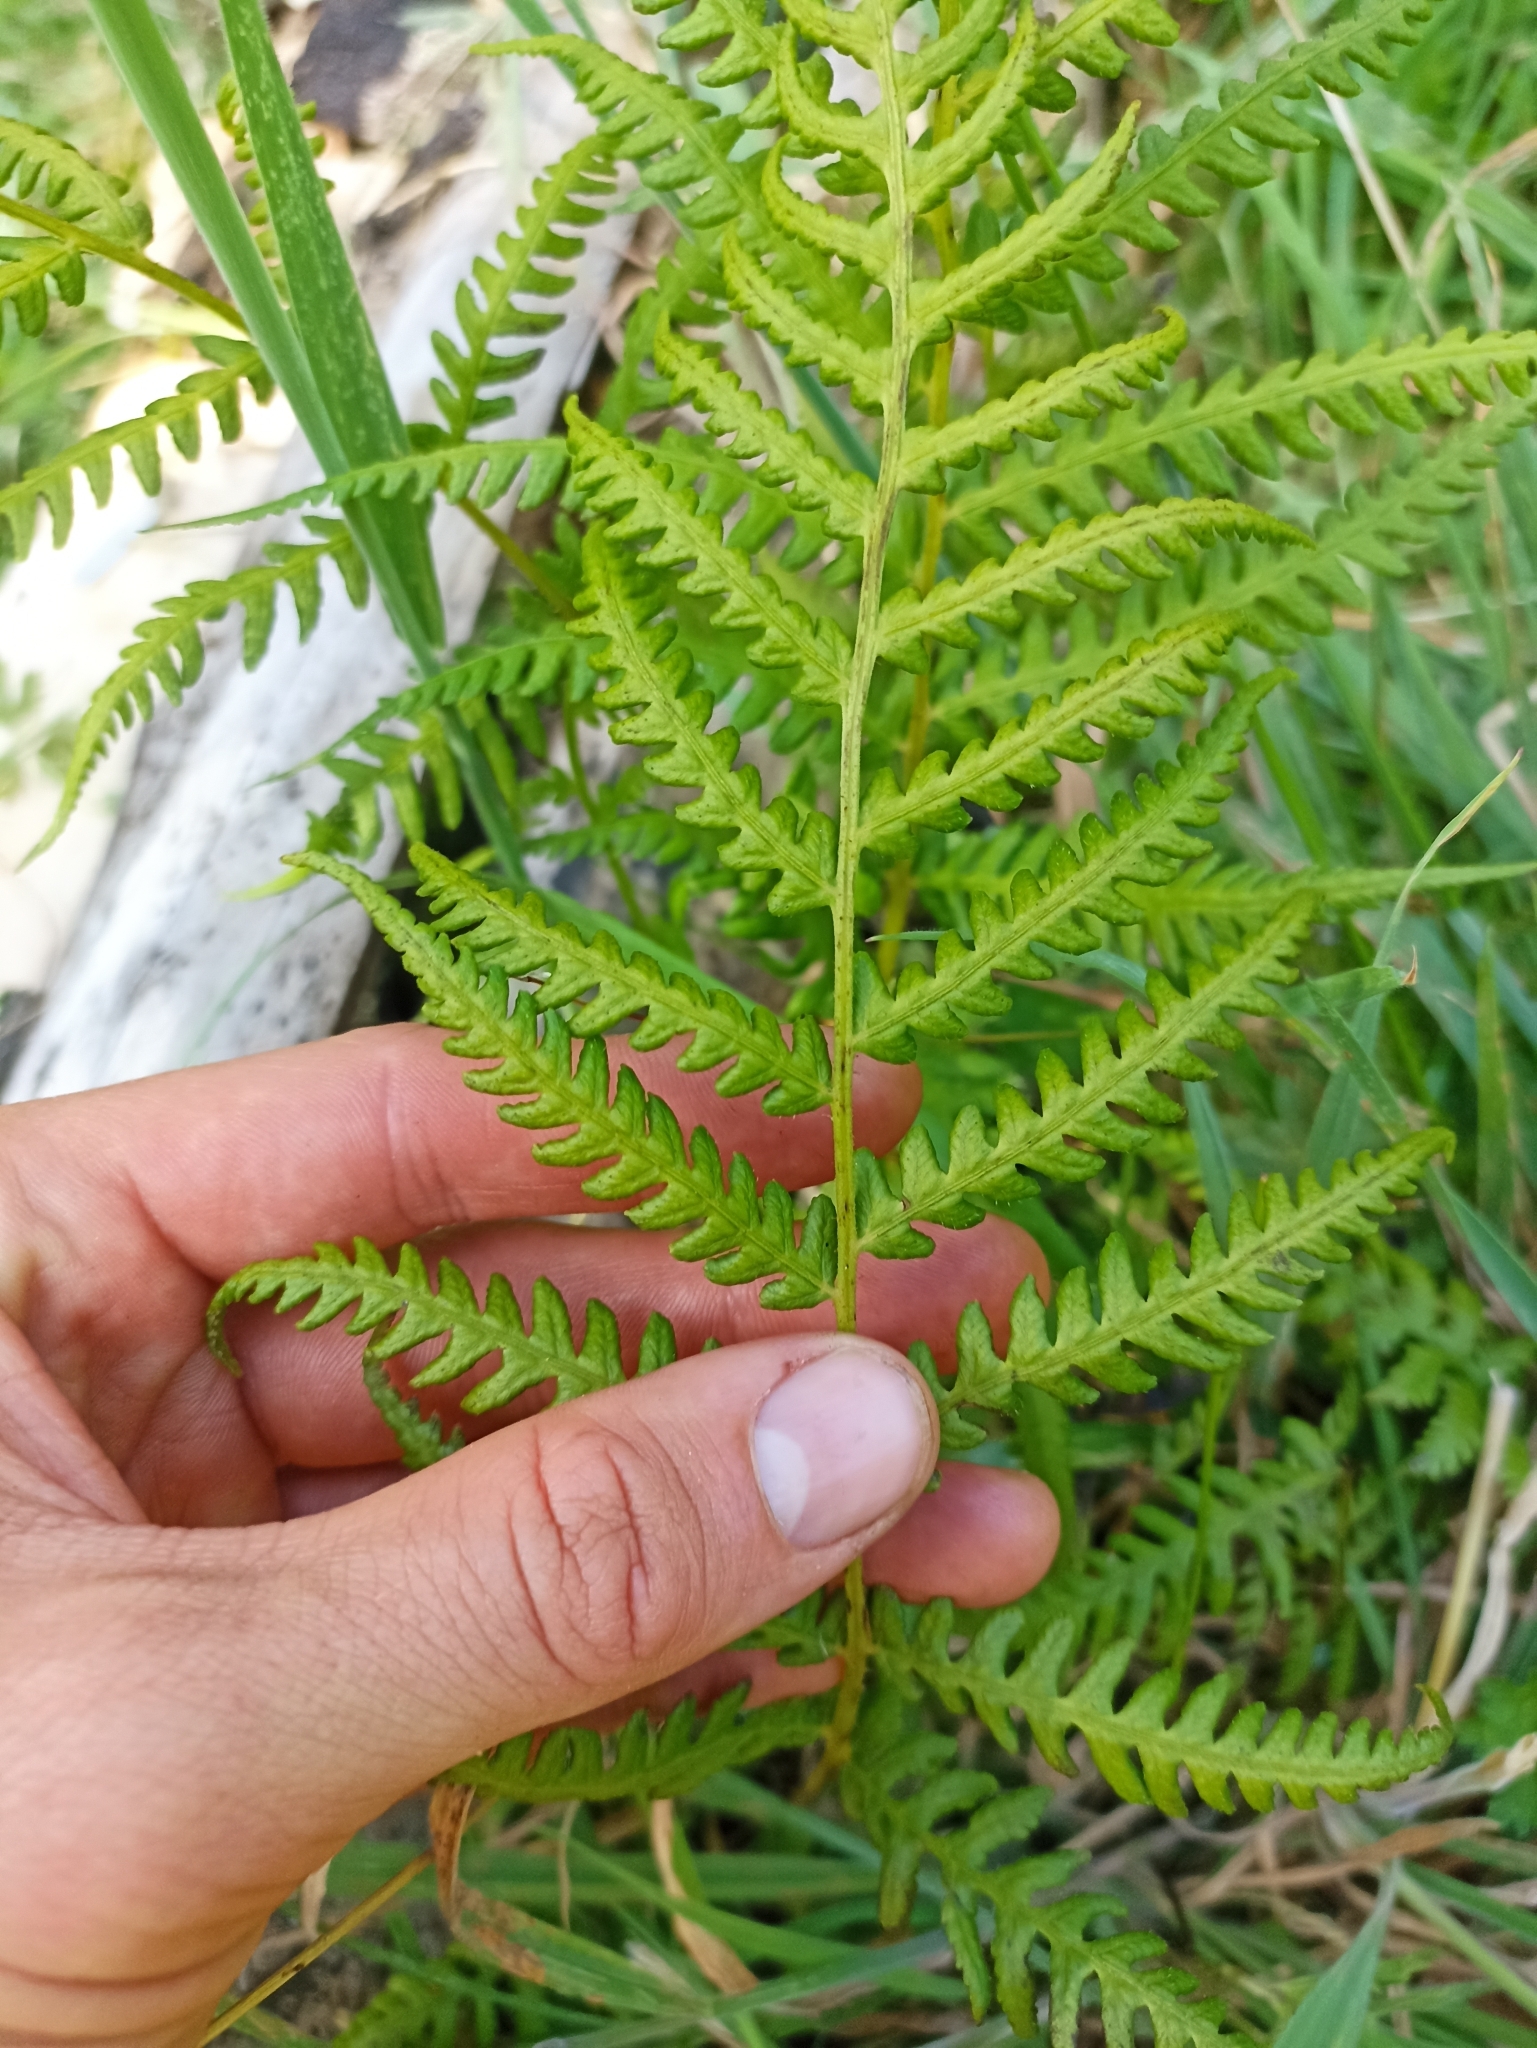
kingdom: Plantae
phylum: Tracheophyta
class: Polypodiopsida
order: Polypodiales
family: Athyriaceae
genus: Deparia
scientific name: Deparia petersenii
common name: Japanese false spleenwort
